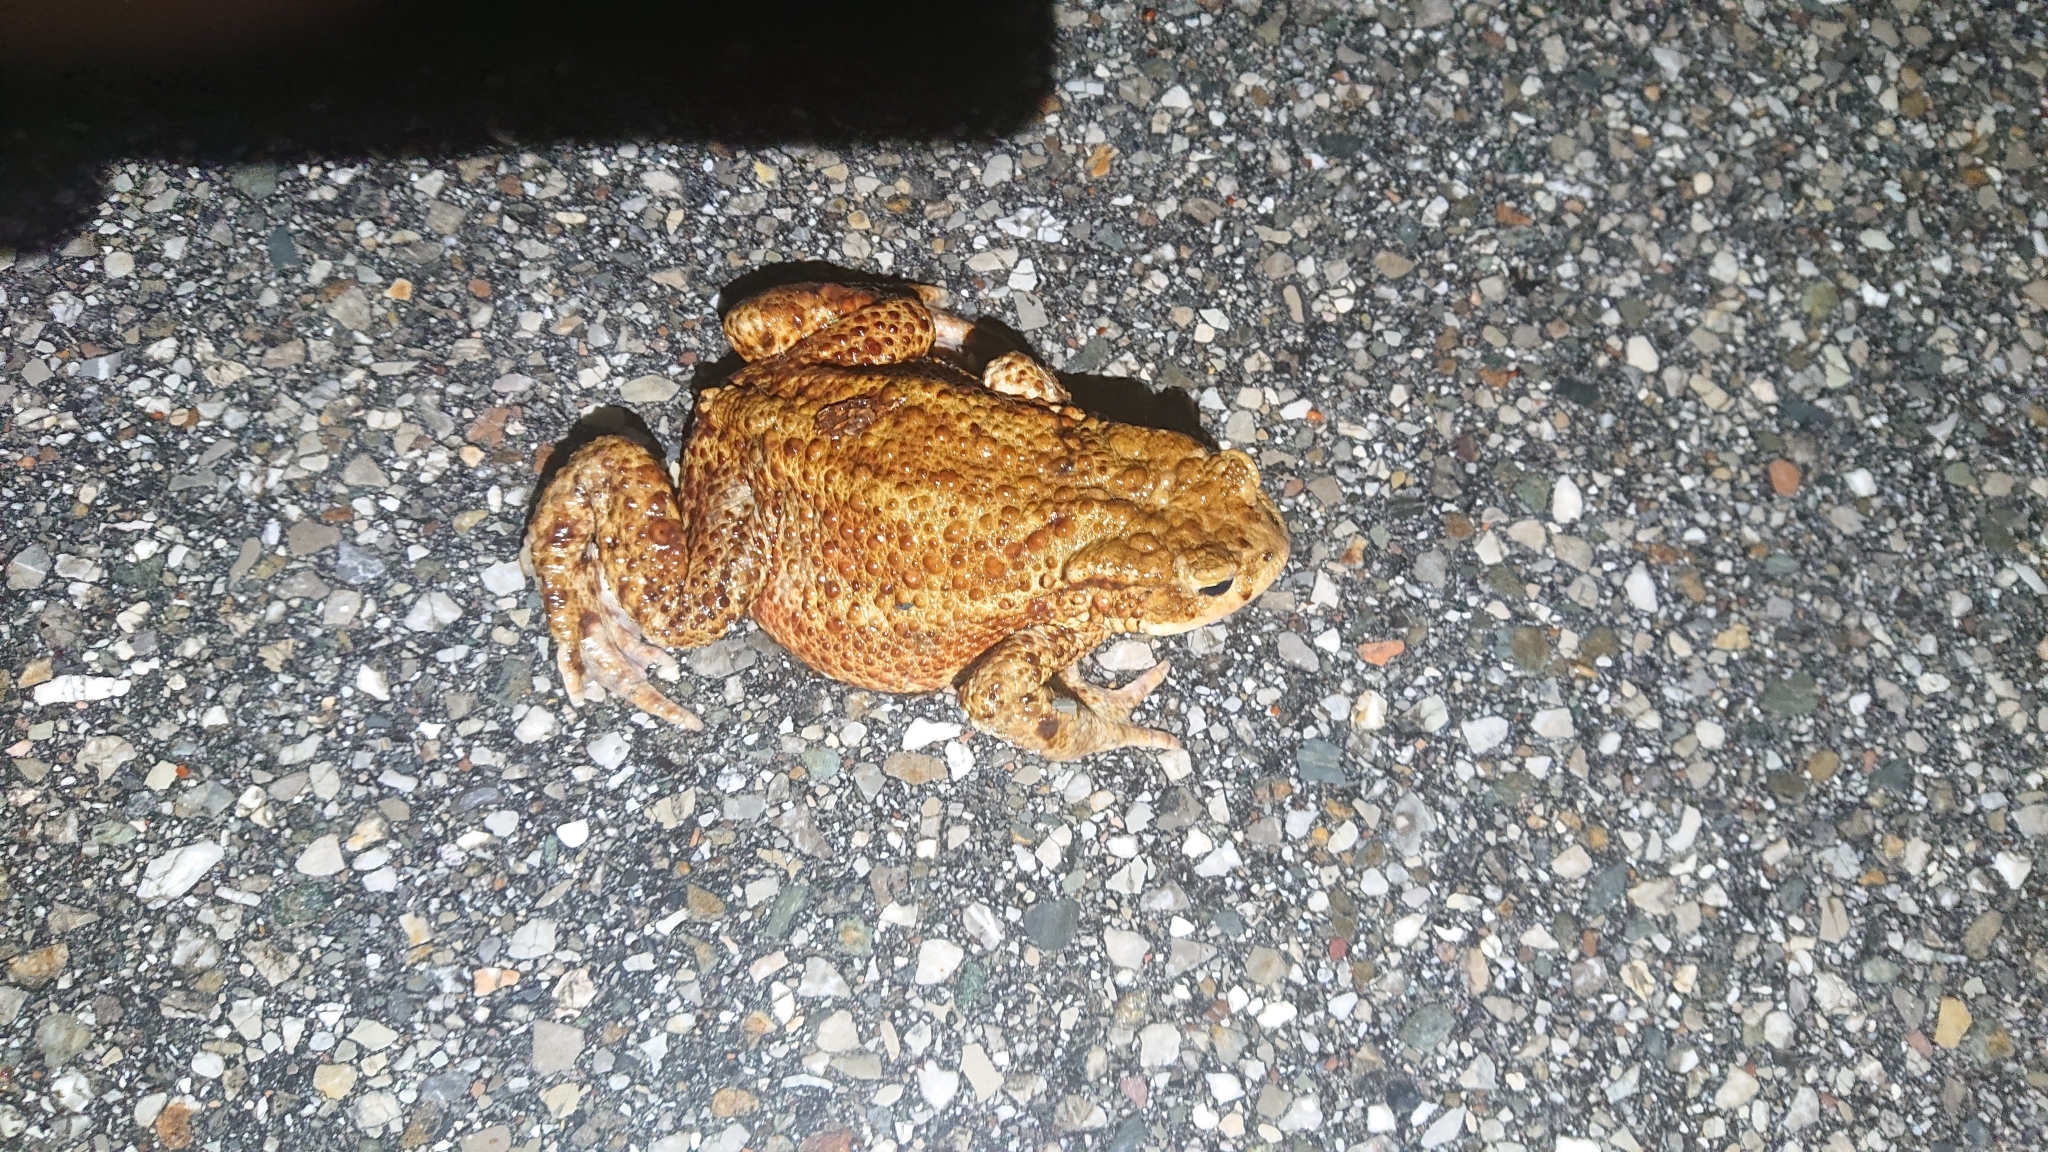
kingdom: Animalia
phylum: Chordata
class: Amphibia
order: Anura
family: Bufonidae
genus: Bufo
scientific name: Bufo bufo
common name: Common toad
